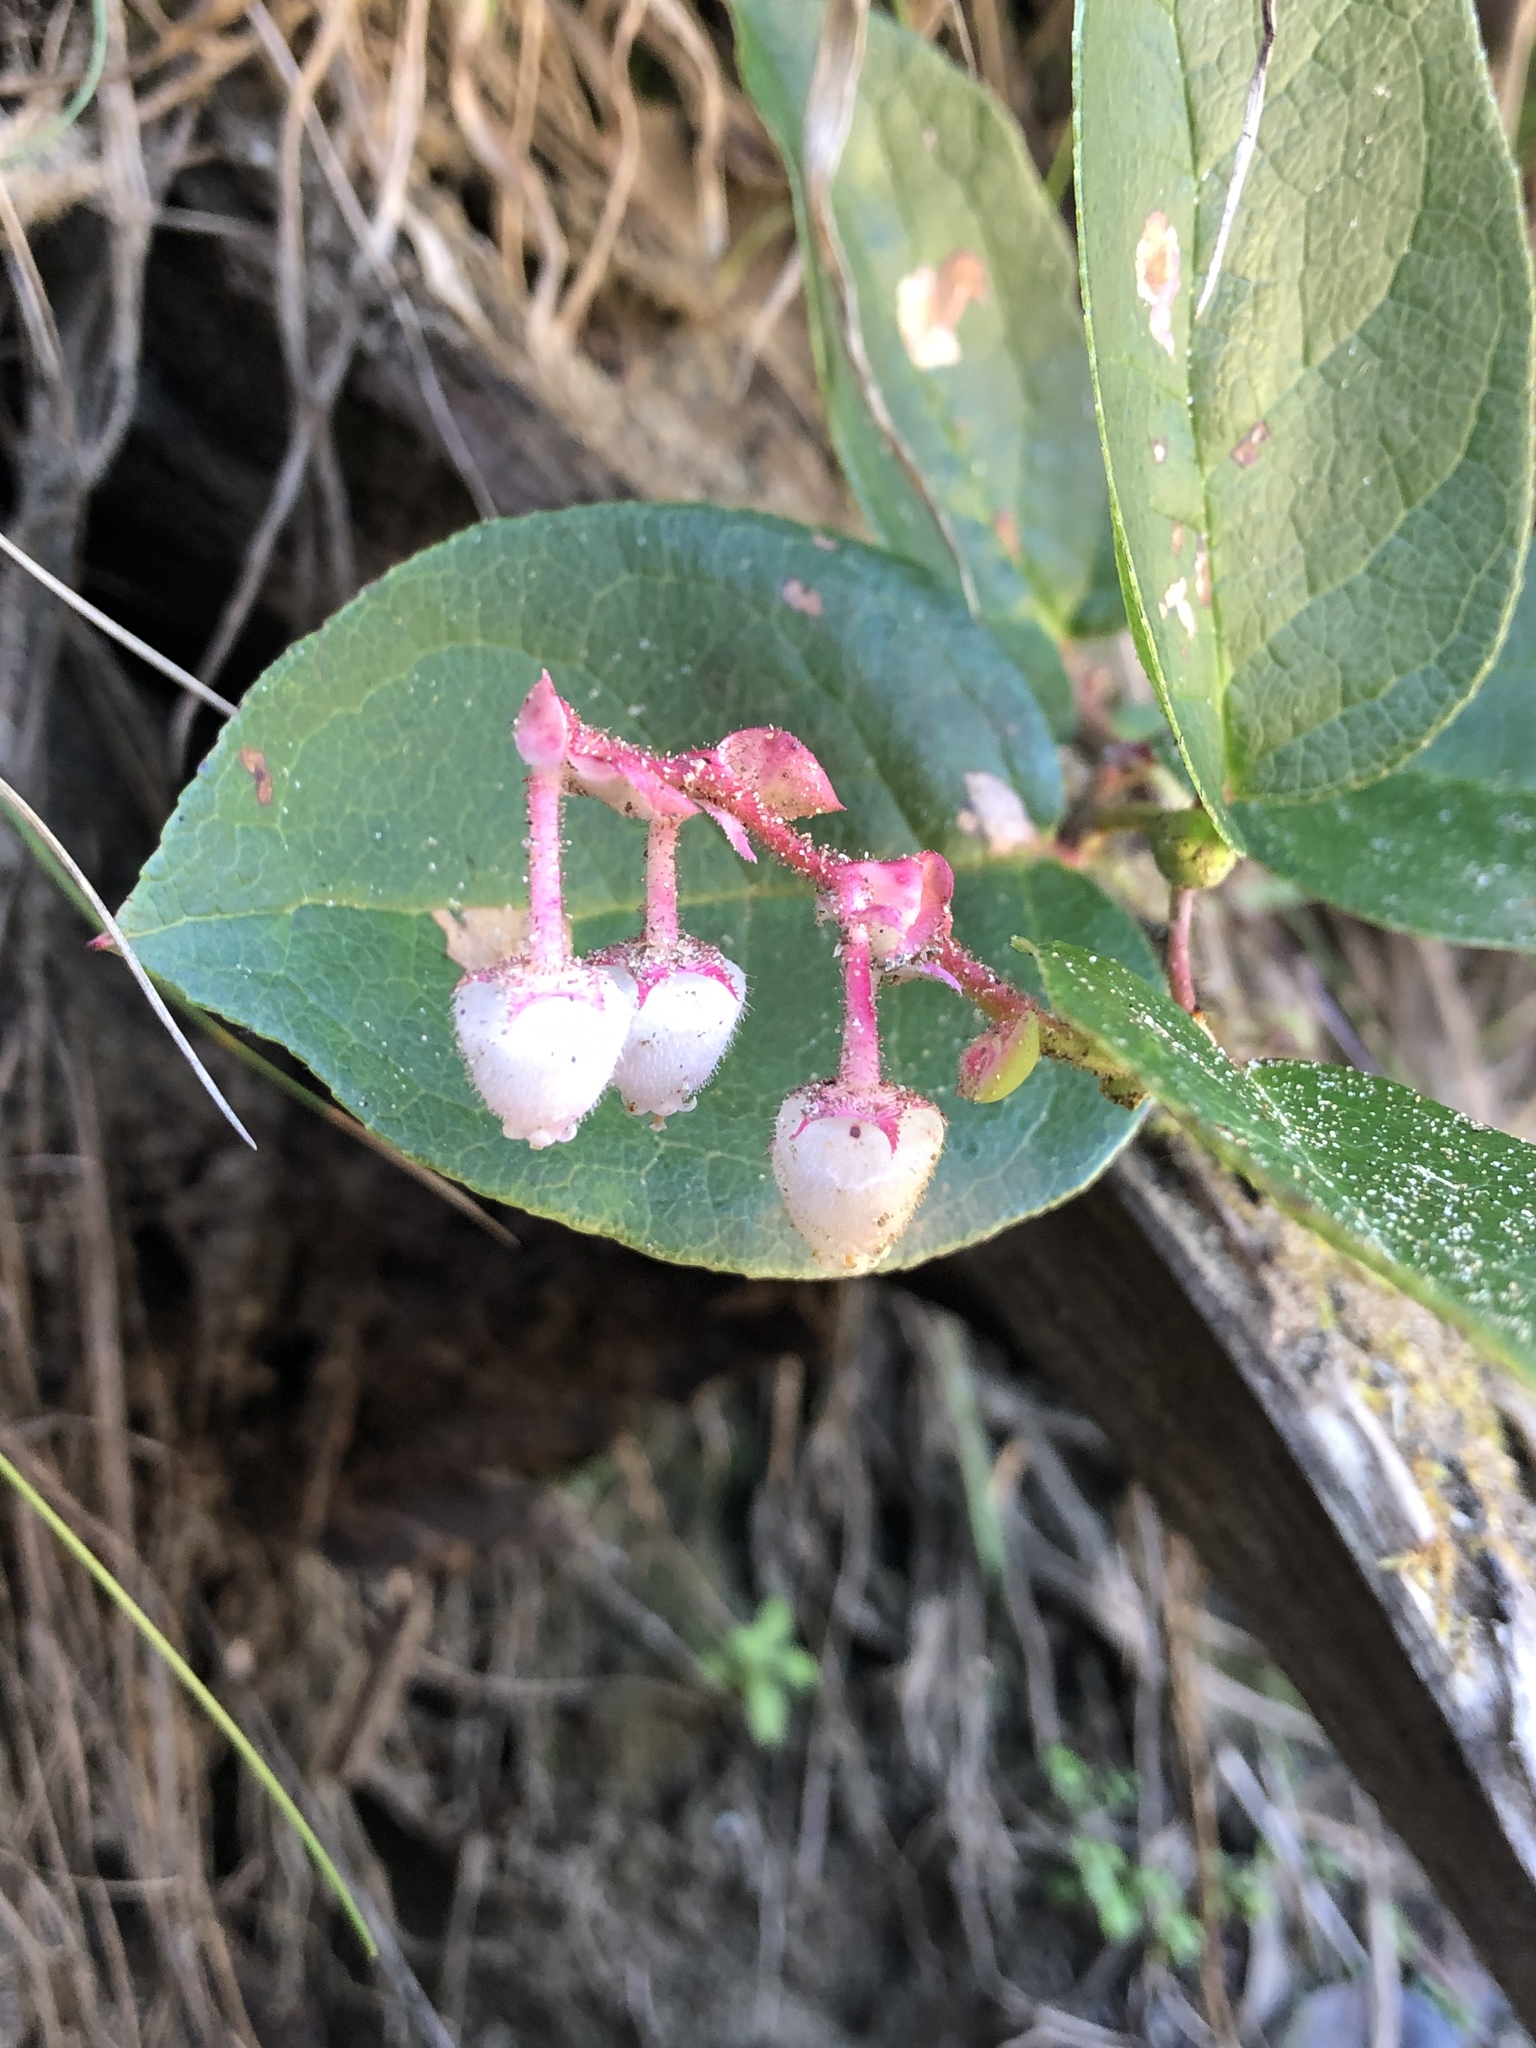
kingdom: Plantae
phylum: Tracheophyta
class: Magnoliopsida
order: Ericales
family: Ericaceae
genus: Gaultheria
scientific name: Gaultheria shallon
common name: Shallon
